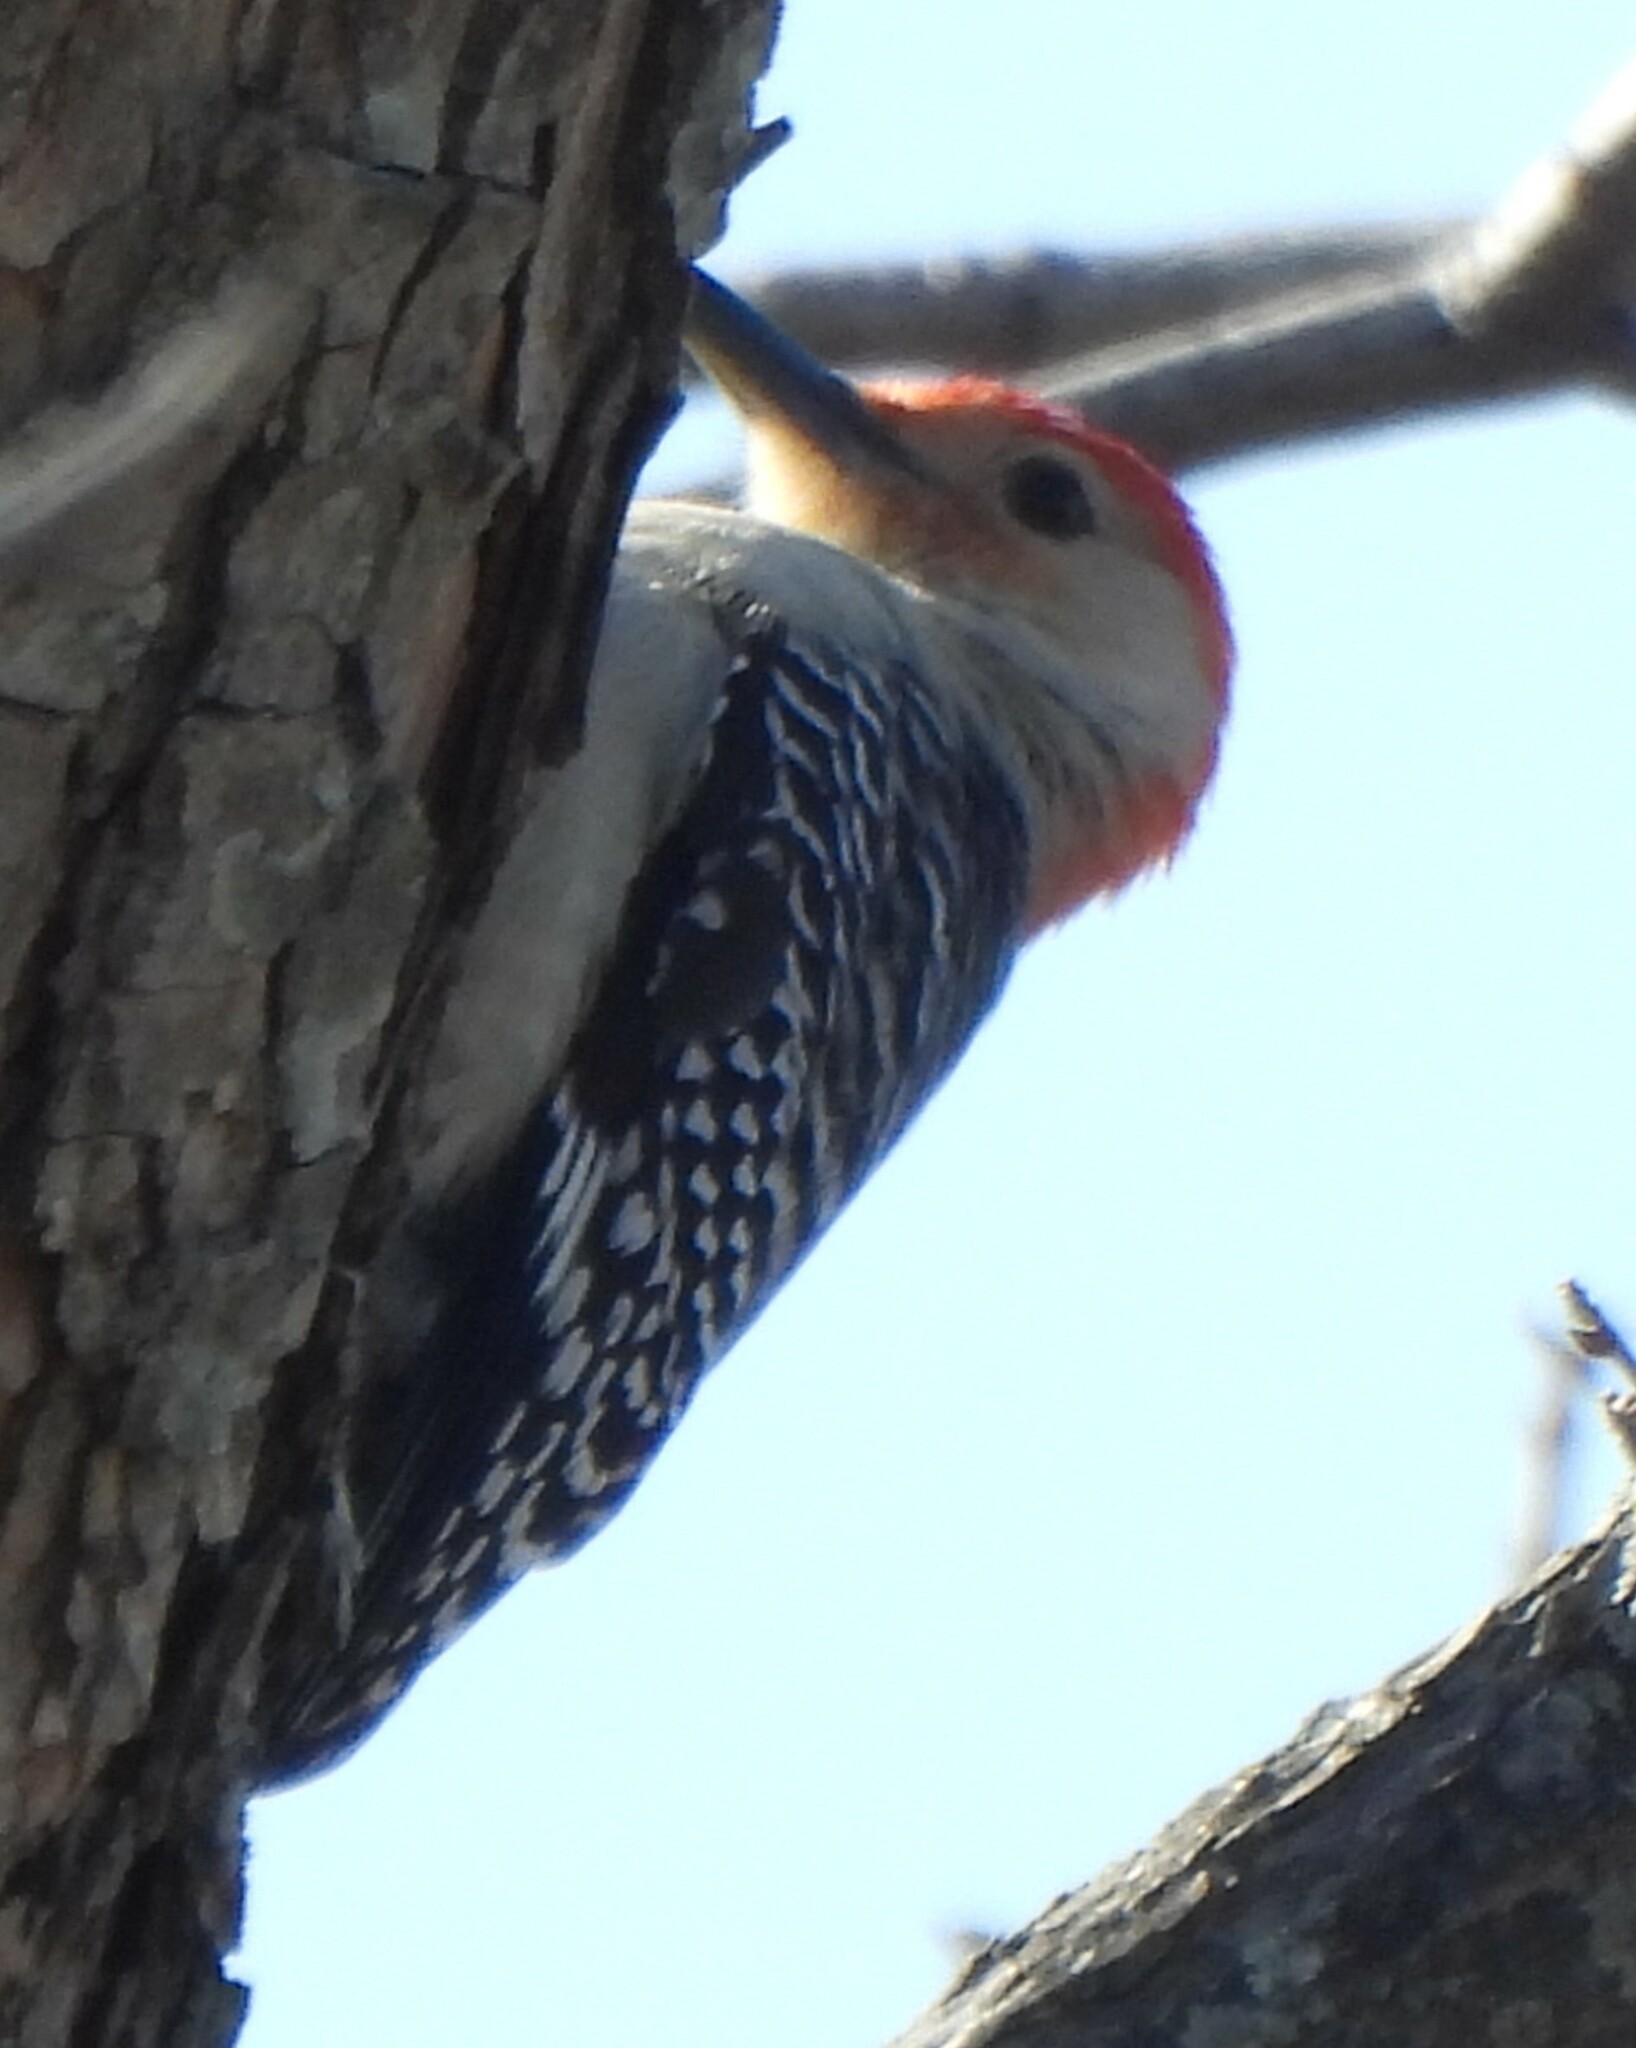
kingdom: Animalia
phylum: Chordata
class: Aves
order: Piciformes
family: Picidae
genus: Melanerpes
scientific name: Melanerpes carolinus
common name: Red-bellied woodpecker
